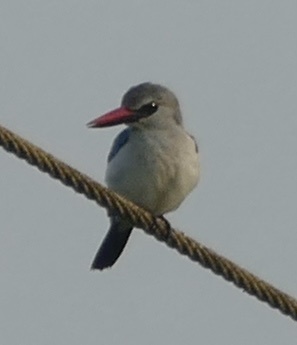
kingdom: Animalia
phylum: Chordata
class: Aves
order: Coraciiformes
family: Alcedinidae
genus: Halcyon
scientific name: Halcyon senegalensis
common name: Woodland kingfisher
